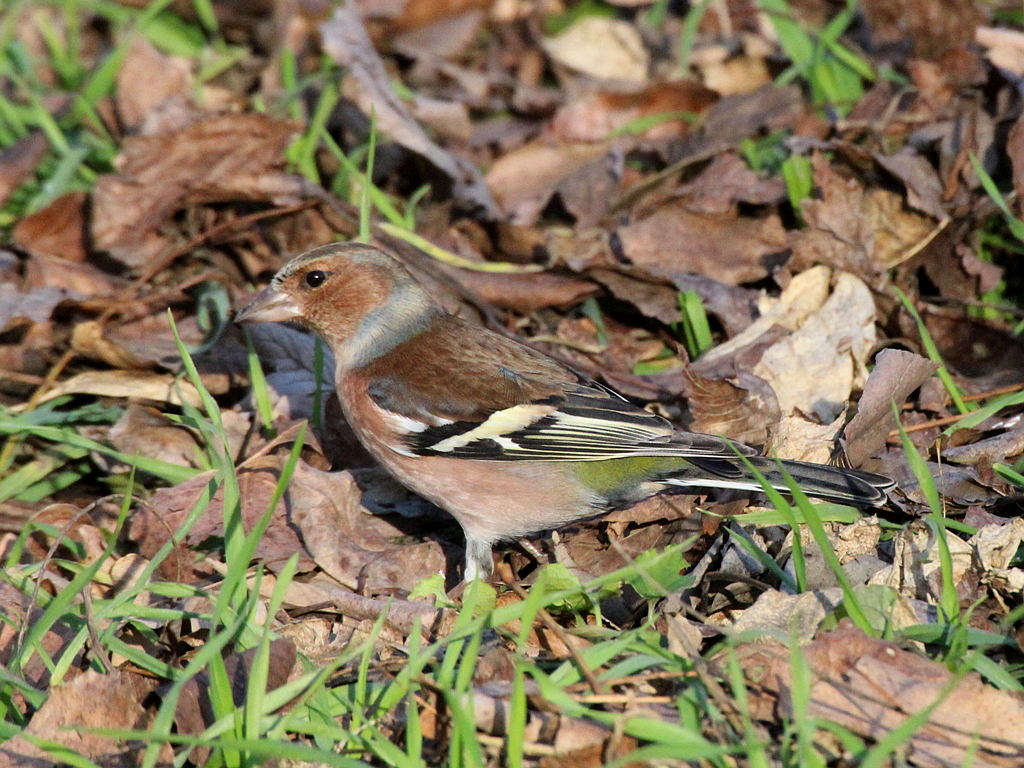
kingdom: Animalia
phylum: Chordata
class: Aves
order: Passeriformes
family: Fringillidae
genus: Fringilla
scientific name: Fringilla coelebs
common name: Common chaffinch
